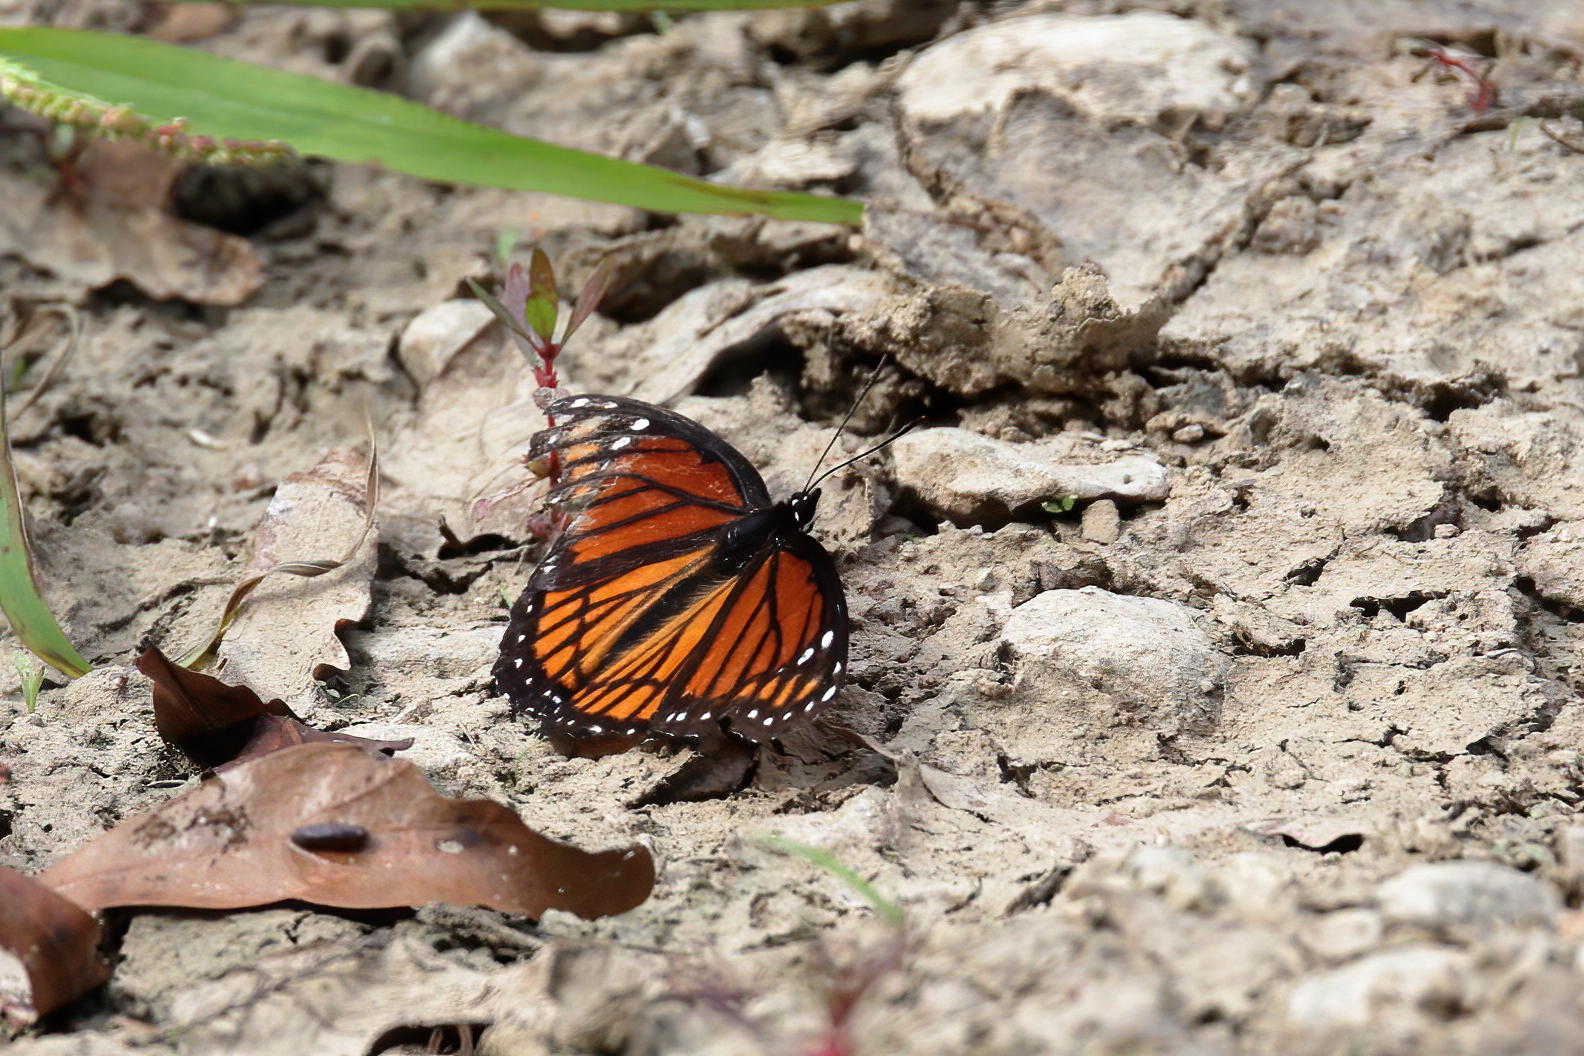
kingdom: Animalia
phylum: Arthropoda
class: Insecta
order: Lepidoptera
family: Nymphalidae
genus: Limenitis
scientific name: Limenitis archippus
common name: Viceroy
